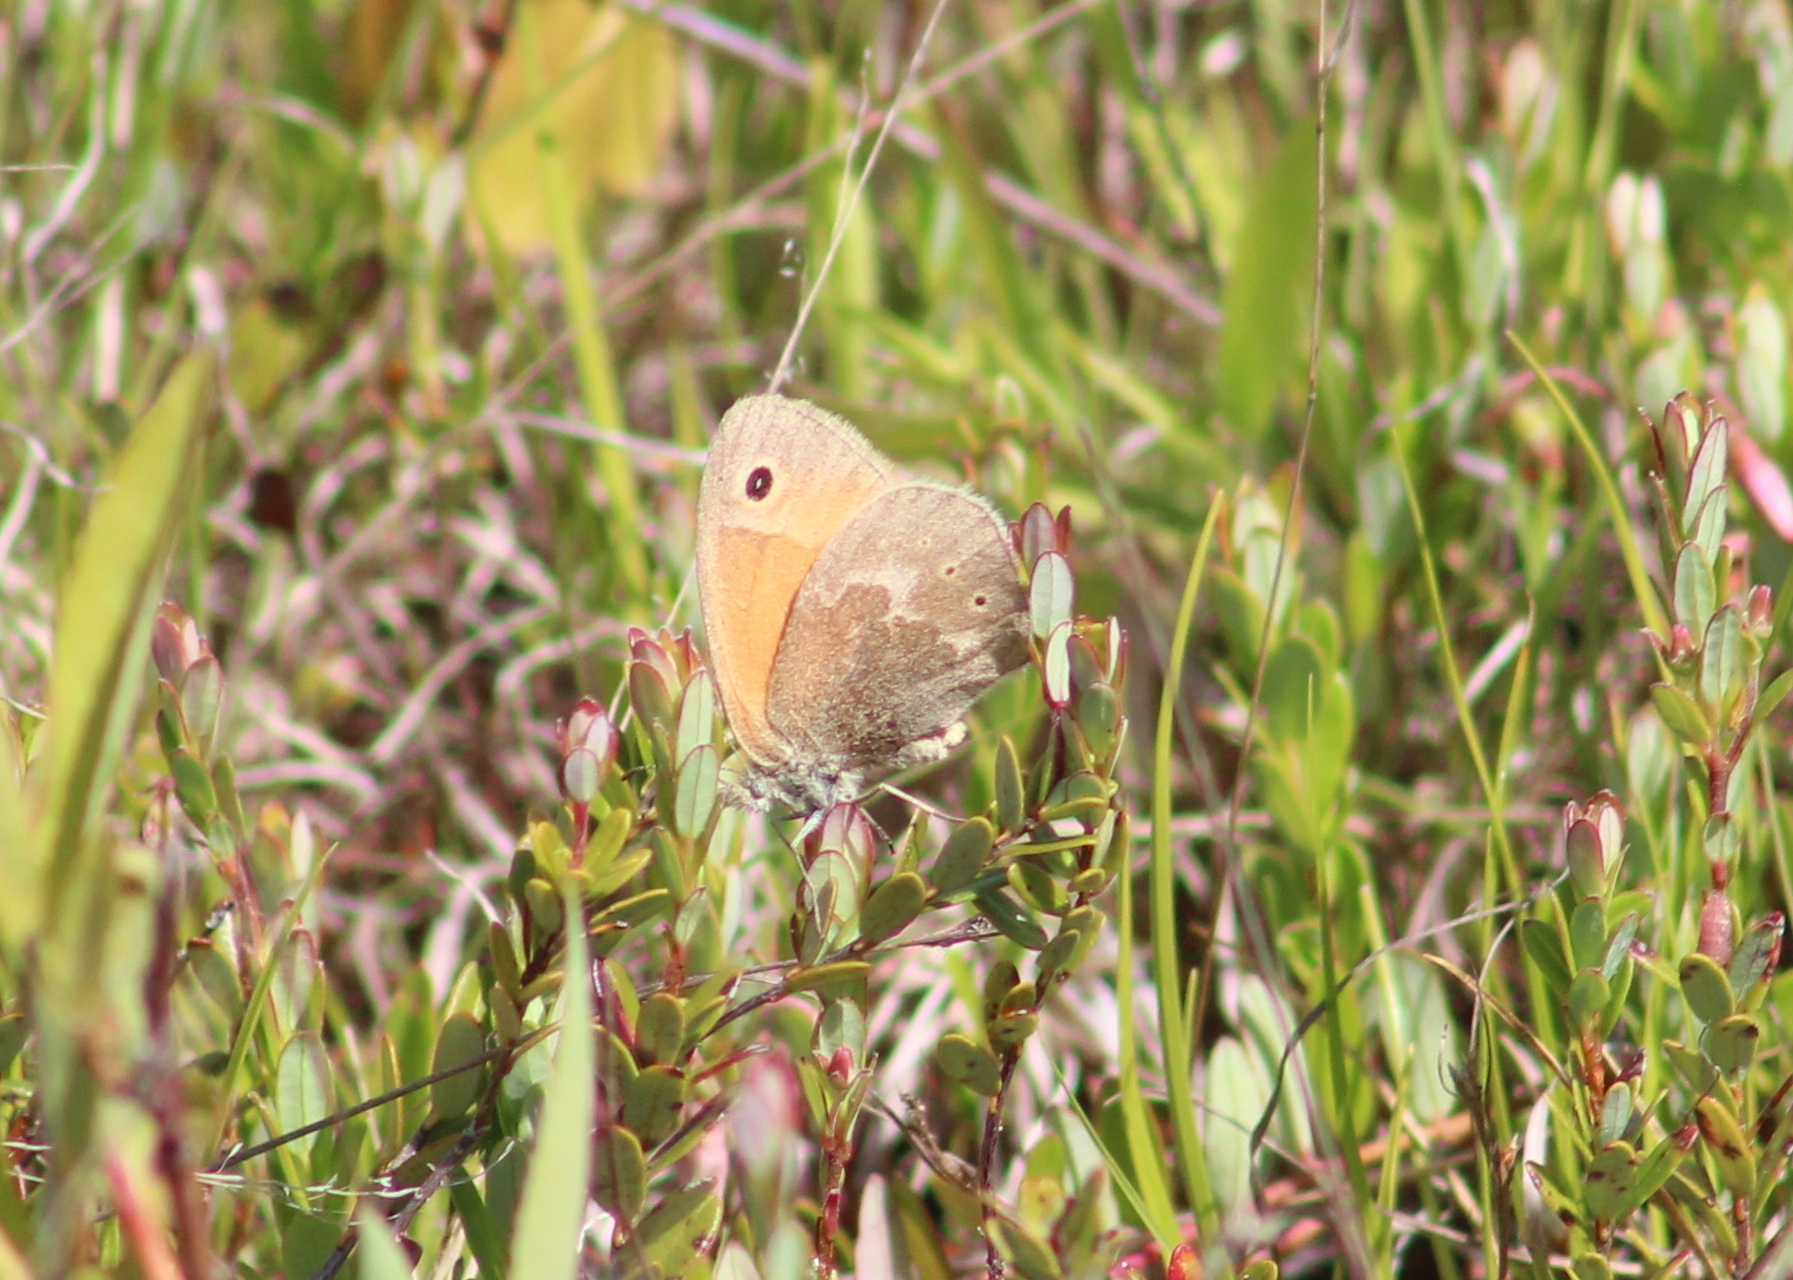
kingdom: Animalia
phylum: Arthropoda
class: Insecta
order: Lepidoptera
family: Nymphalidae
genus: Coenonympha
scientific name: Coenonympha california
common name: Common ringlet
